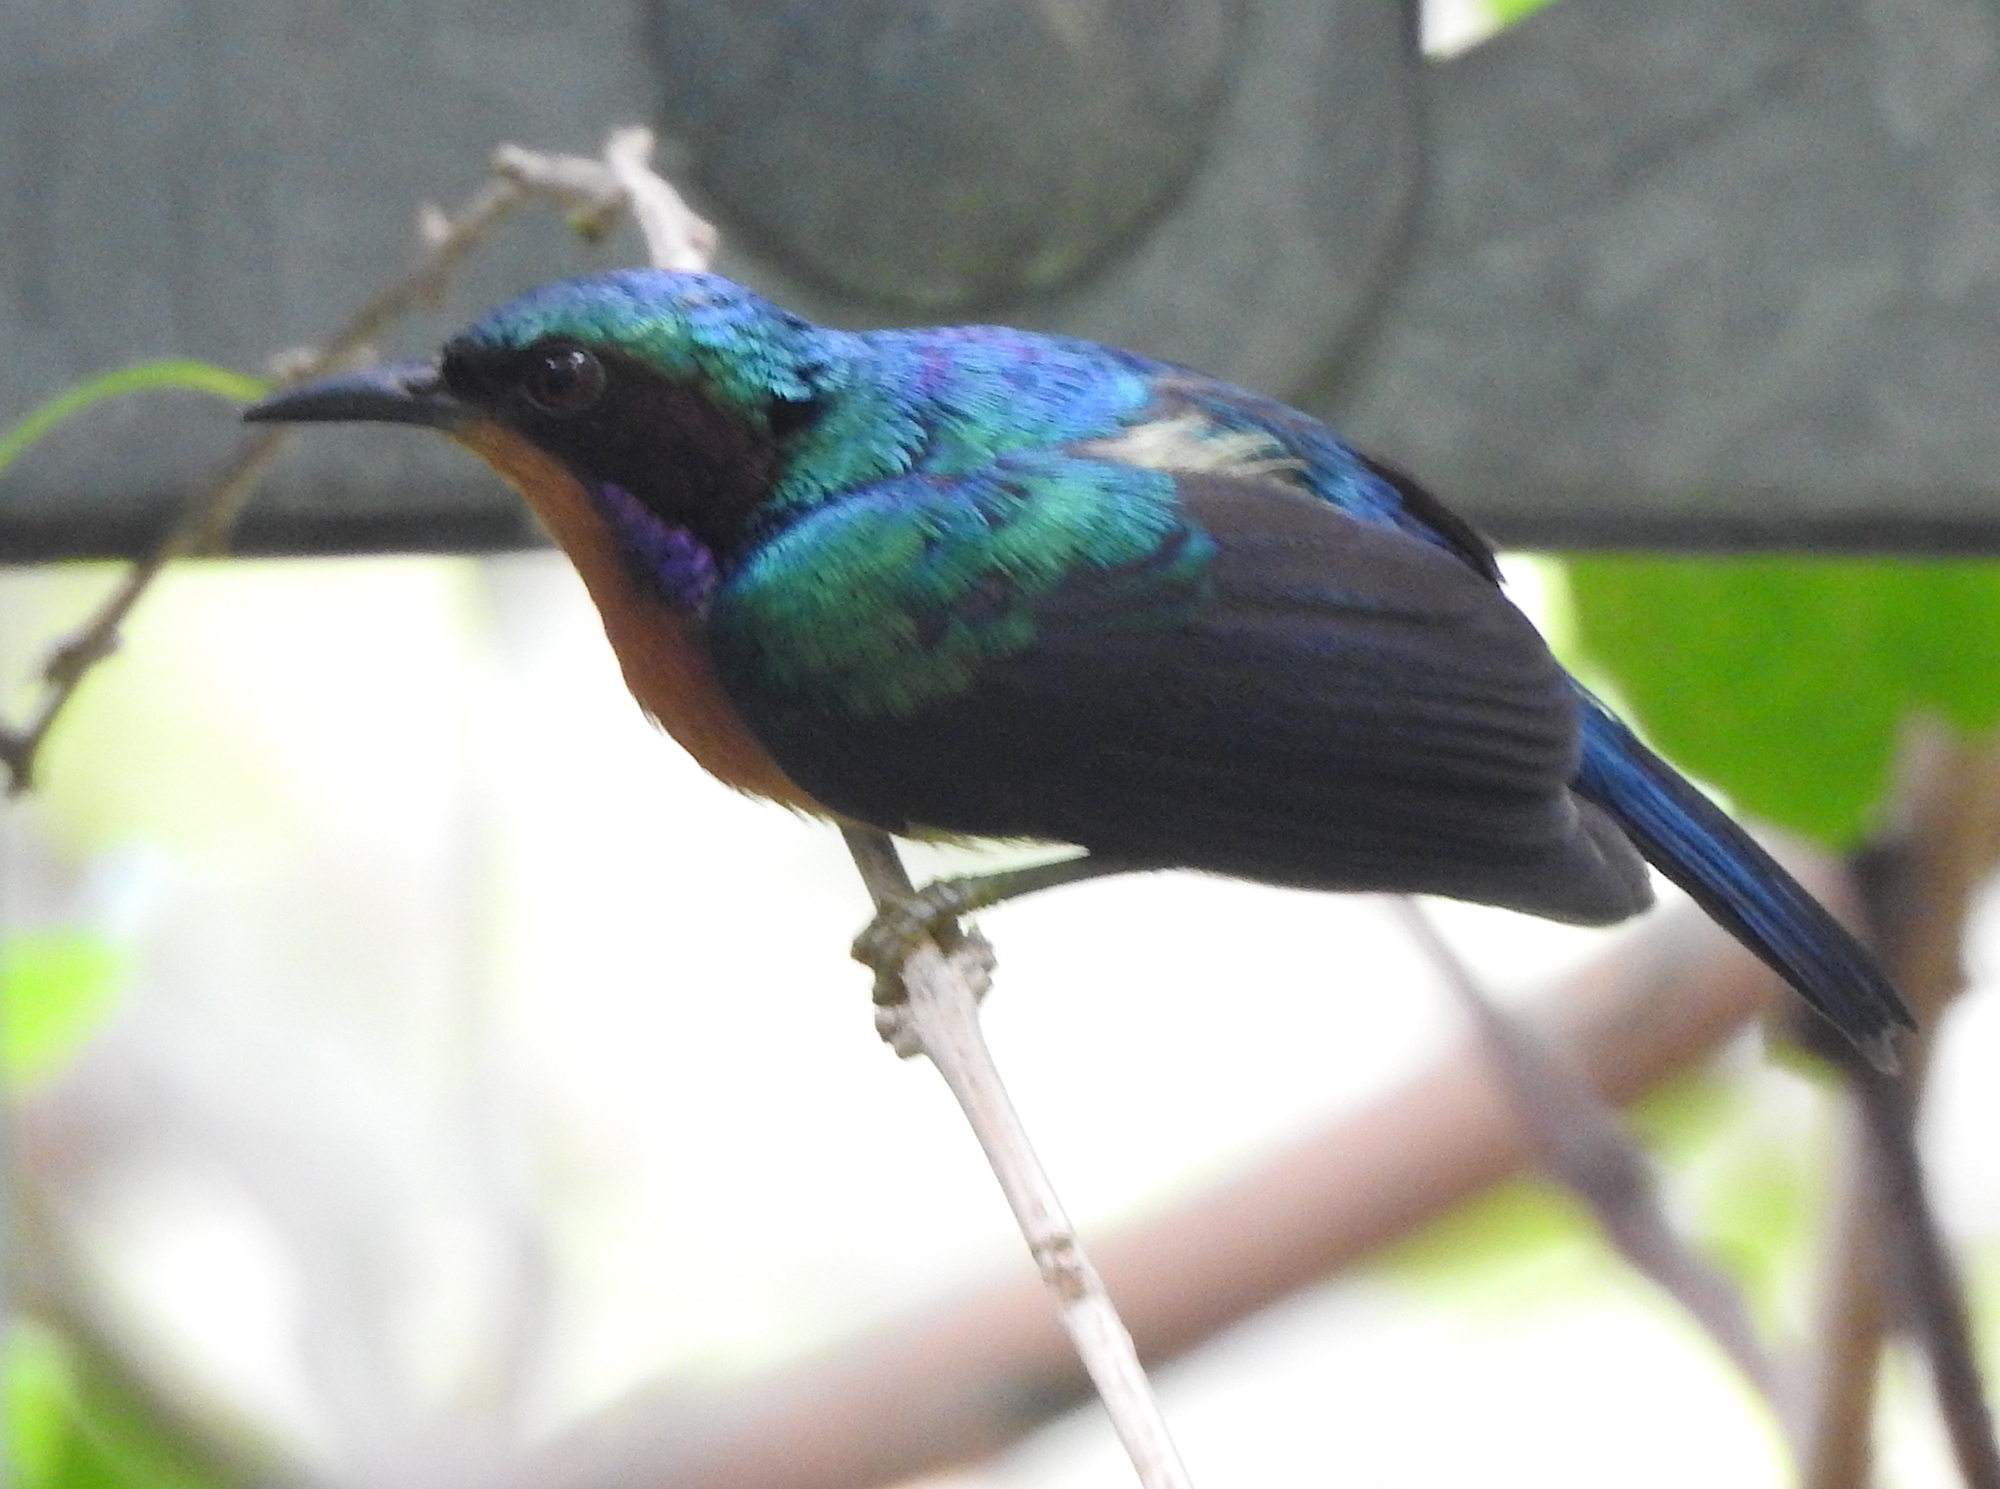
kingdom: Animalia
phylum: Chordata
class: Aves
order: Passeriformes
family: Nectariniidae
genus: Chalcoparia
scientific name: Chalcoparia singalensis
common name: Ruby-cheeked sunbird
